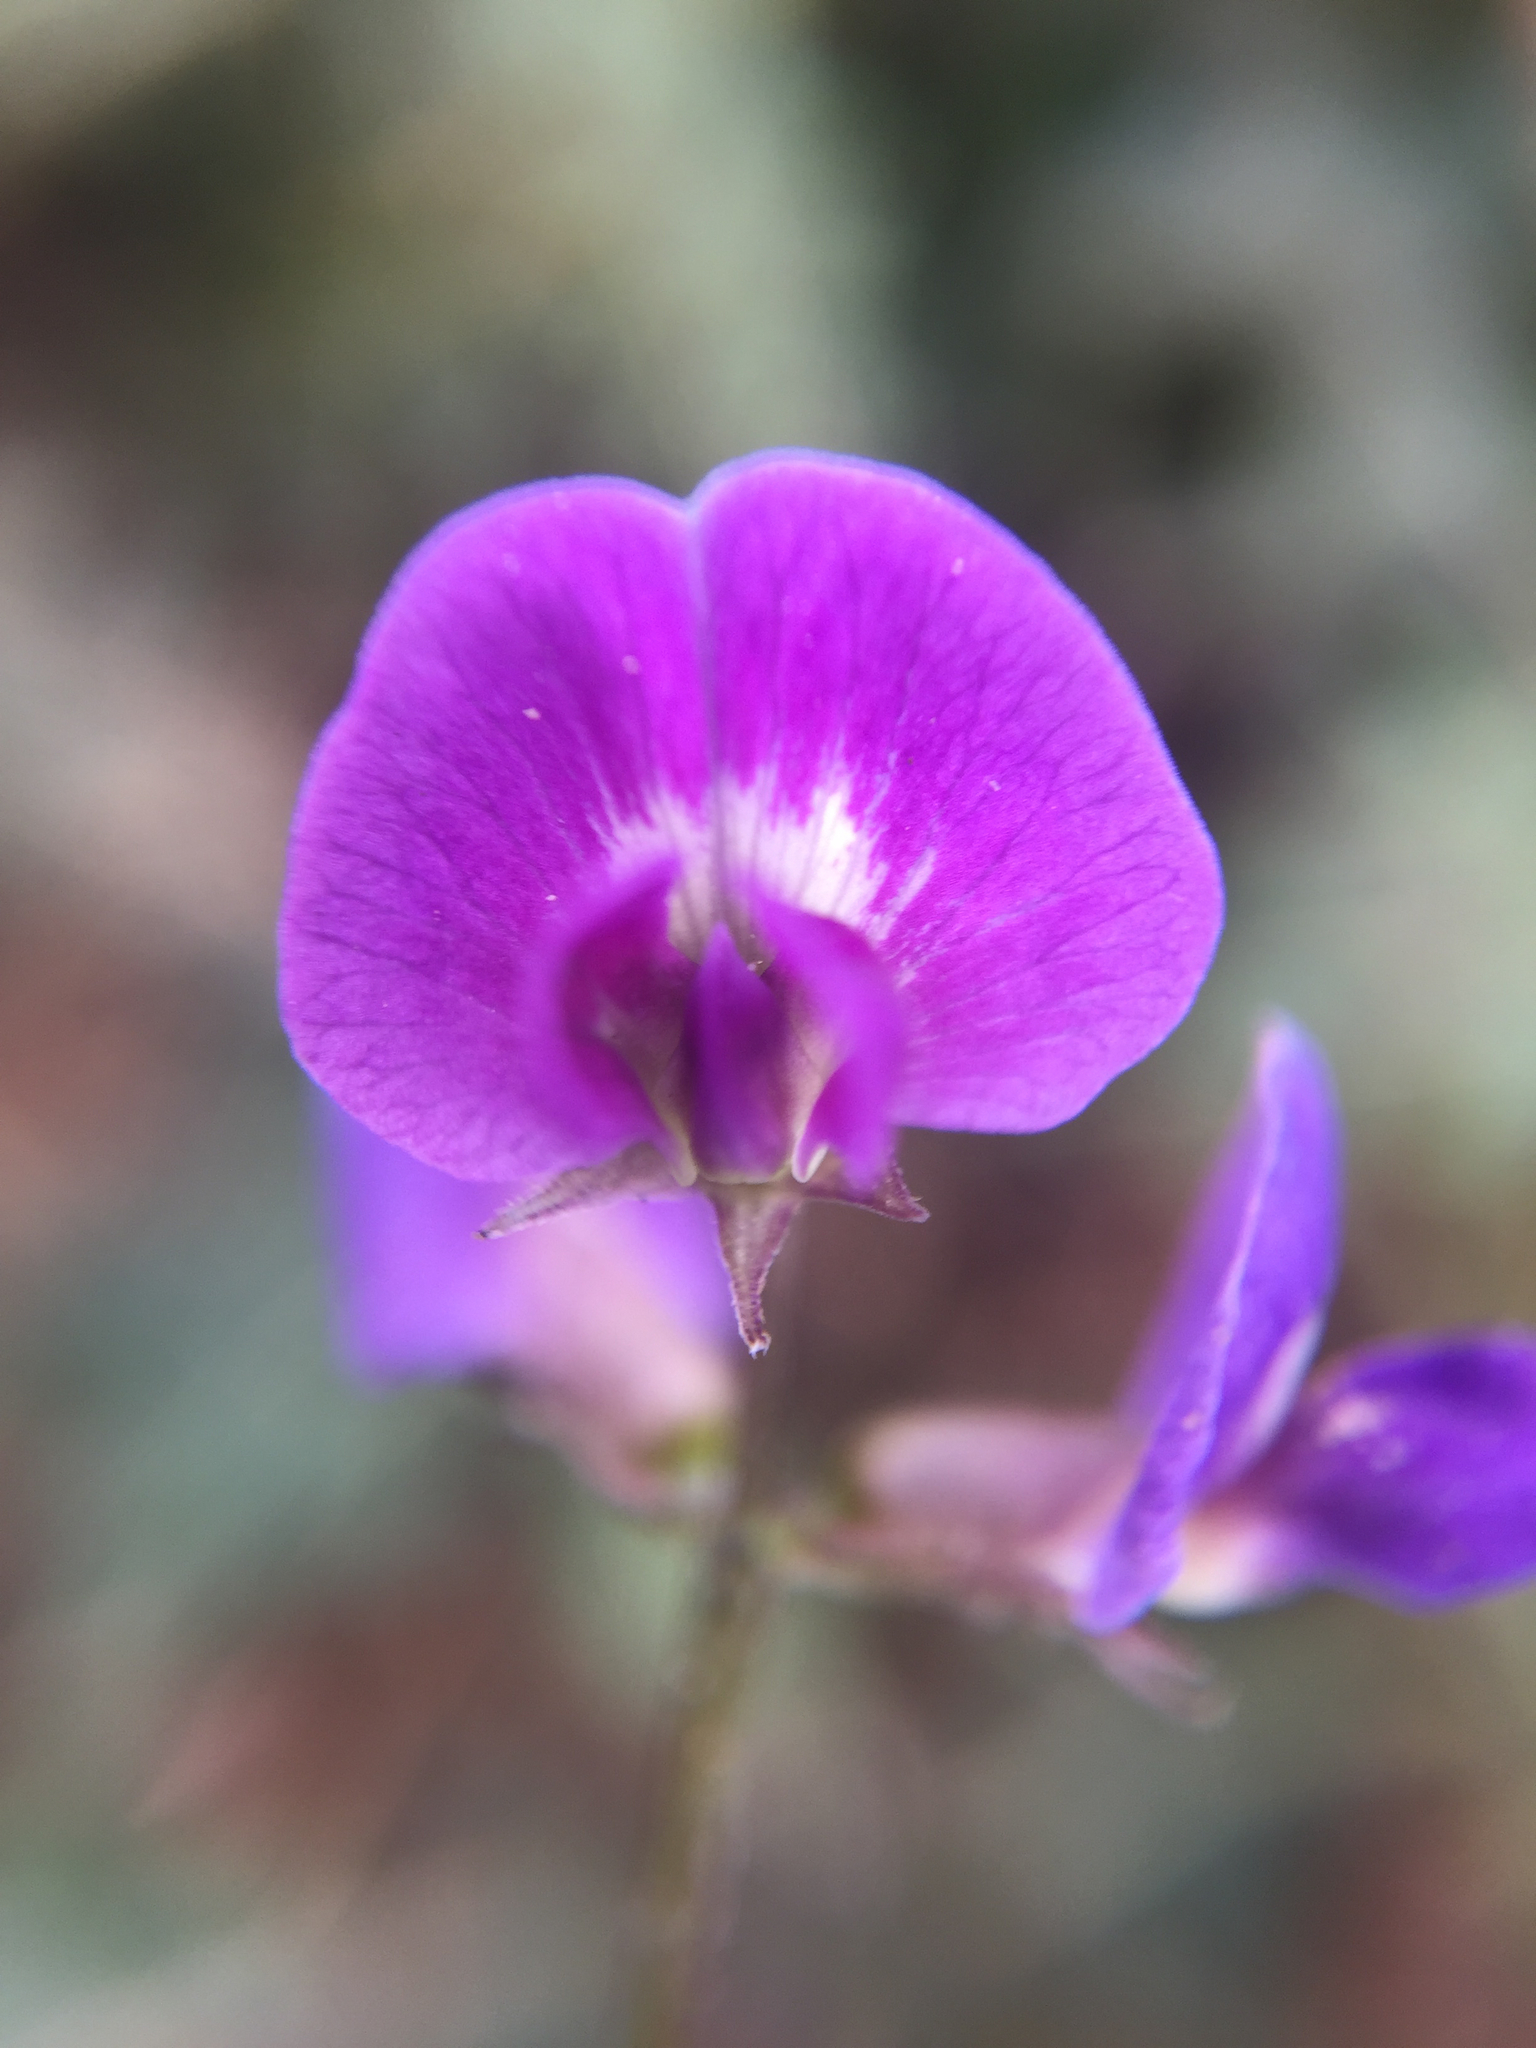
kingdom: Plantae
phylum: Tracheophyta
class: Magnoliopsida
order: Fabales
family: Fabaceae
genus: Glycine
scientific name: Glycine tabacina
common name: Pea glycine
